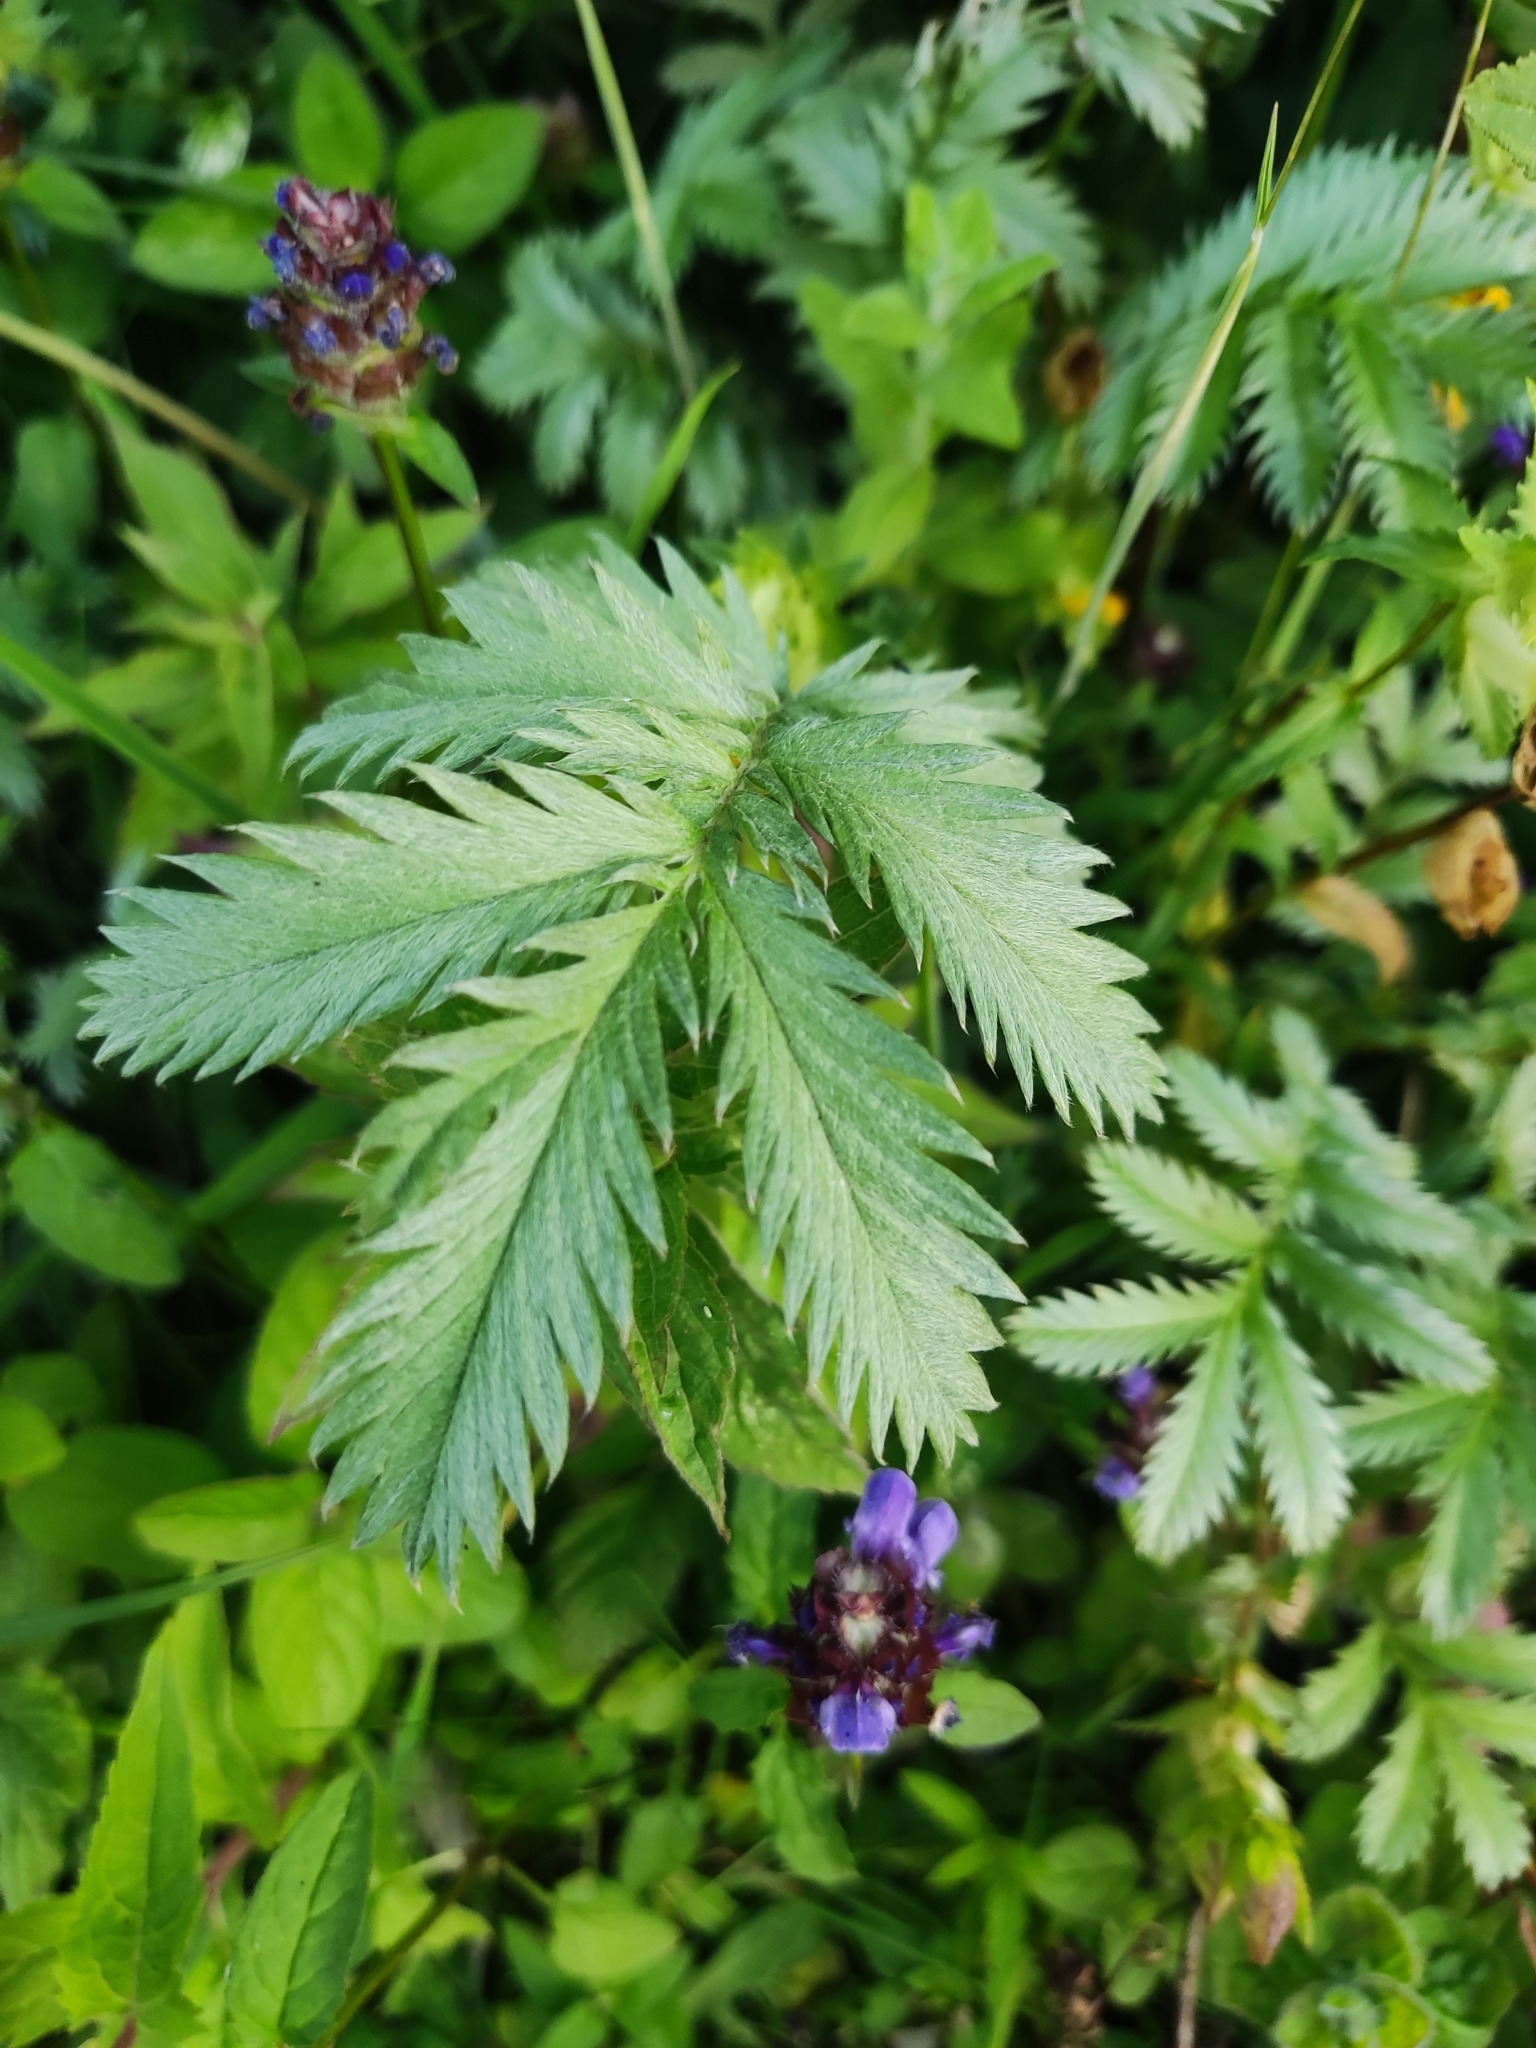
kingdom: Plantae
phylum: Tracheophyta
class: Magnoliopsida
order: Rosales
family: Rosaceae
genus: Argentina
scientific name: Argentina anserina
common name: Common silverweed
